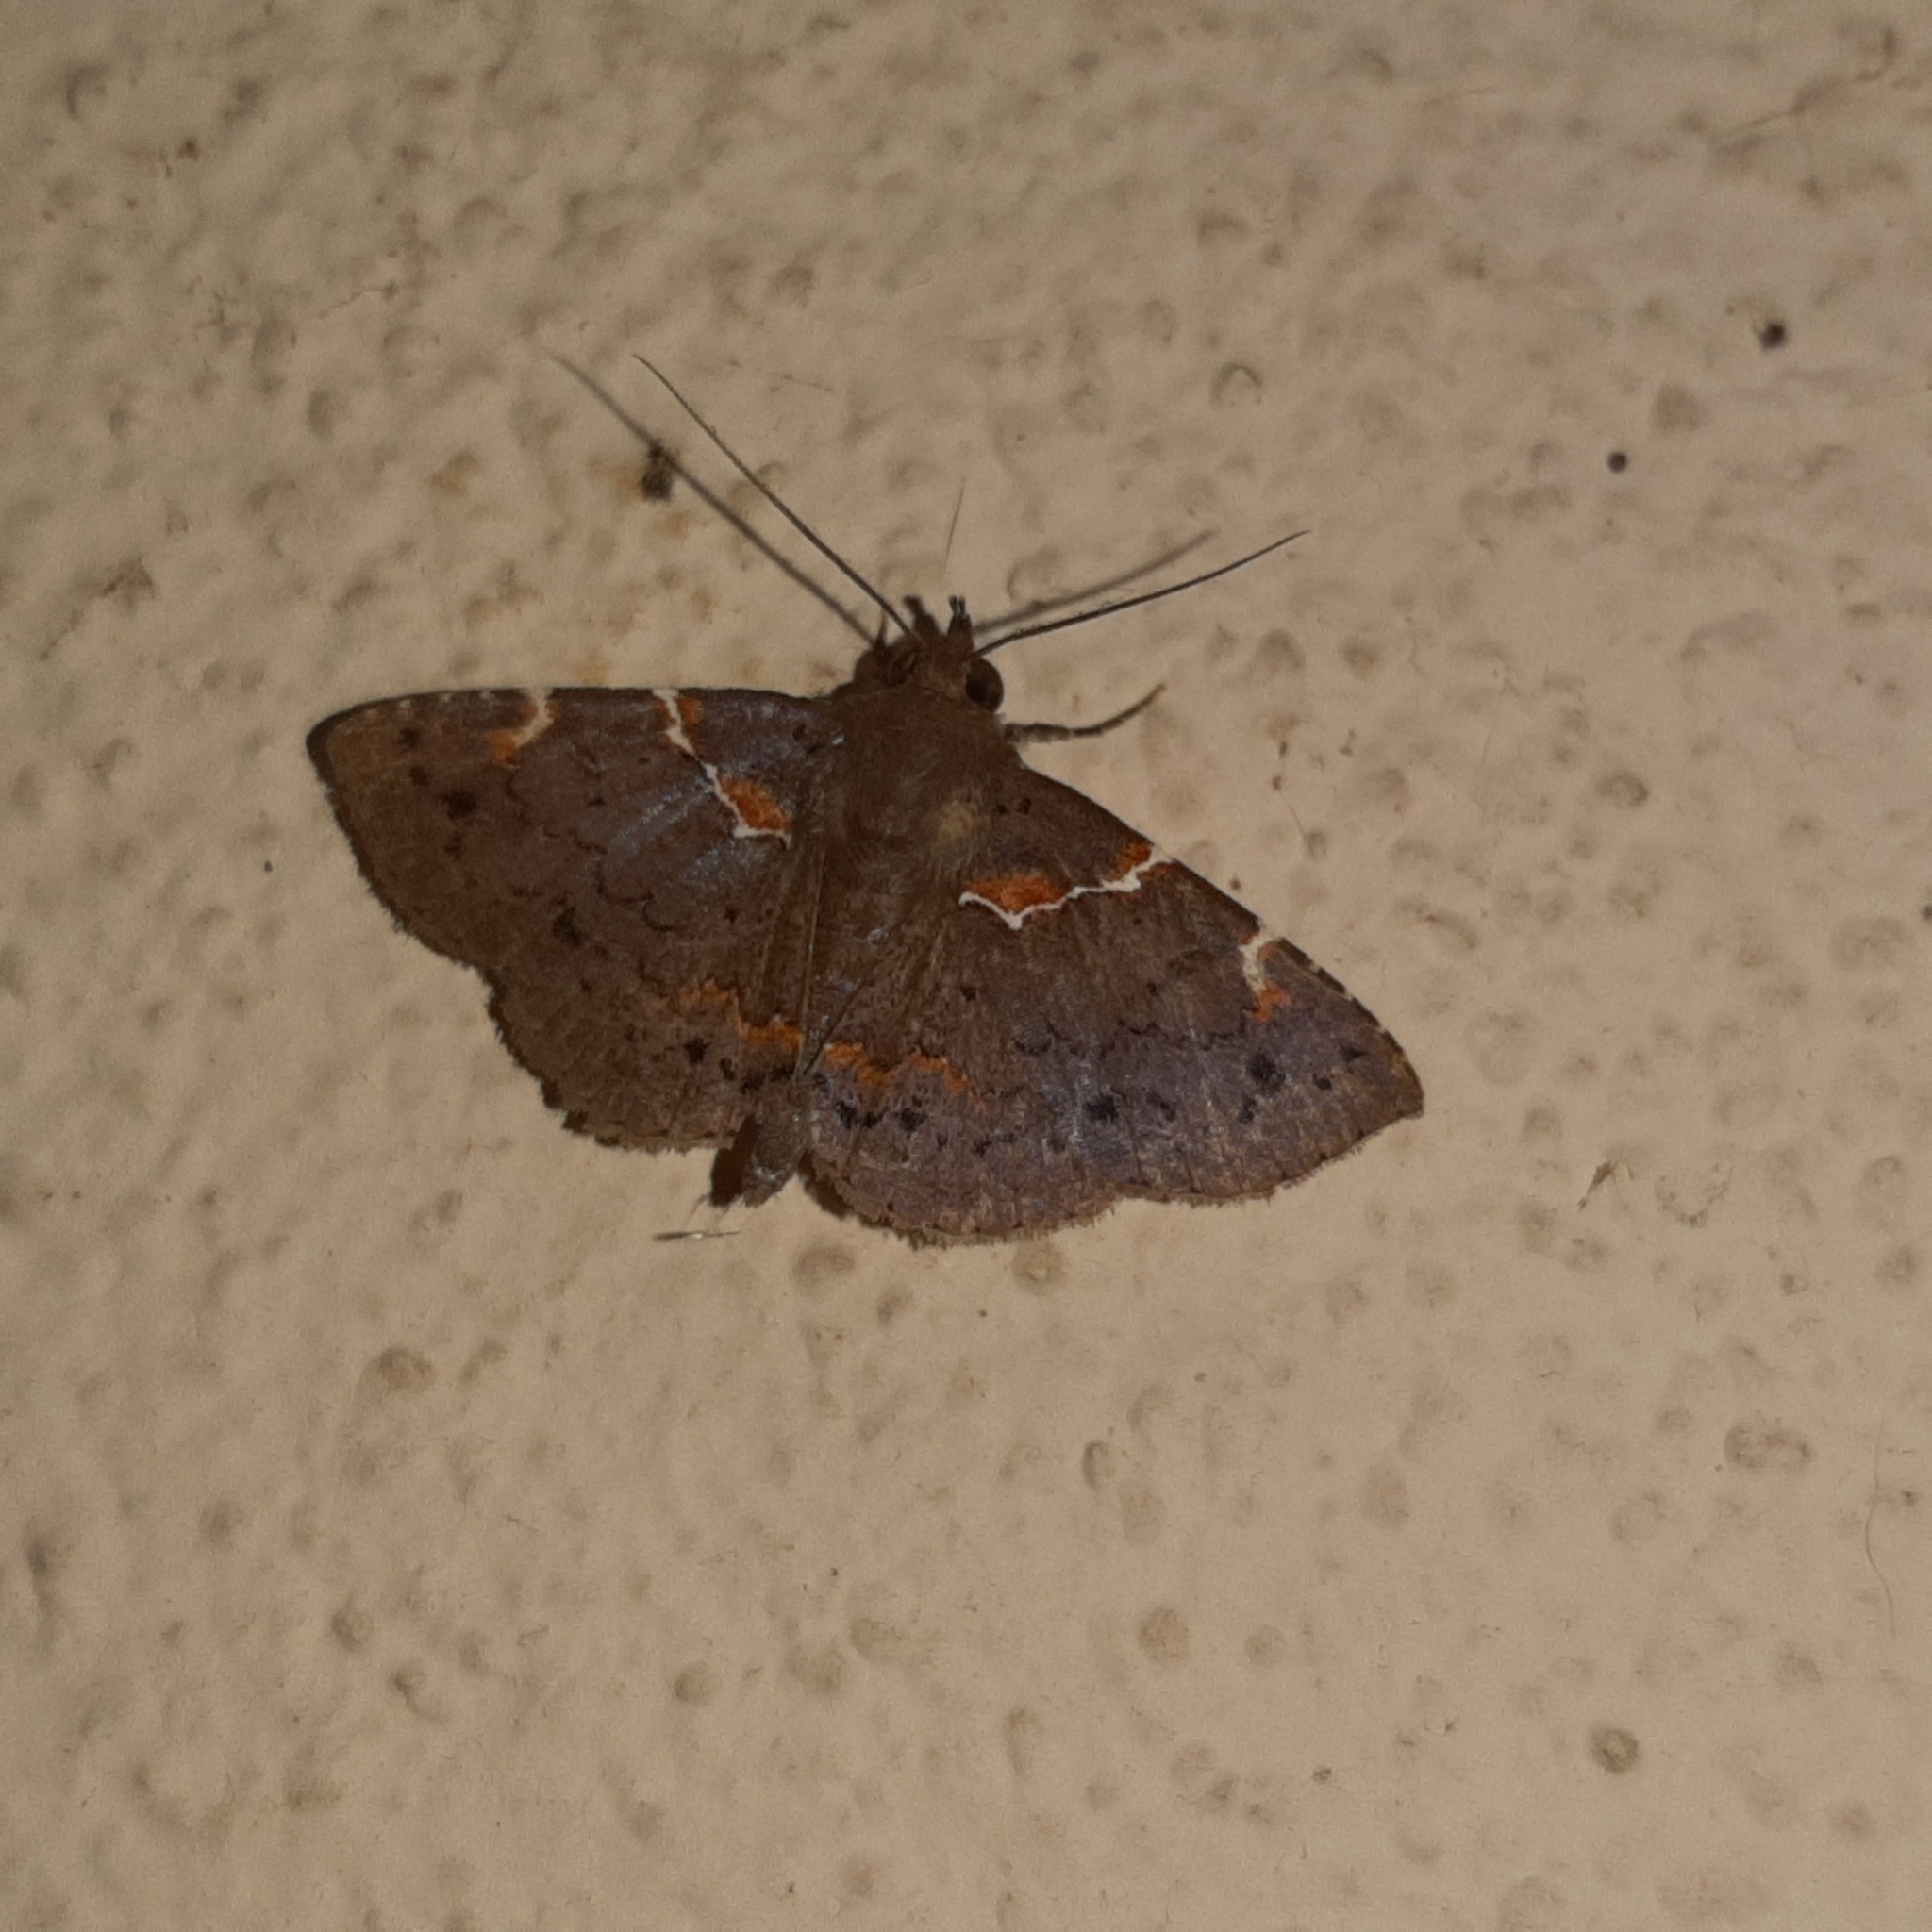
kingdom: Animalia
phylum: Arthropoda
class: Insecta
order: Lepidoptera
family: Erebidae
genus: Antiblemma
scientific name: Antiblemma anguinea
